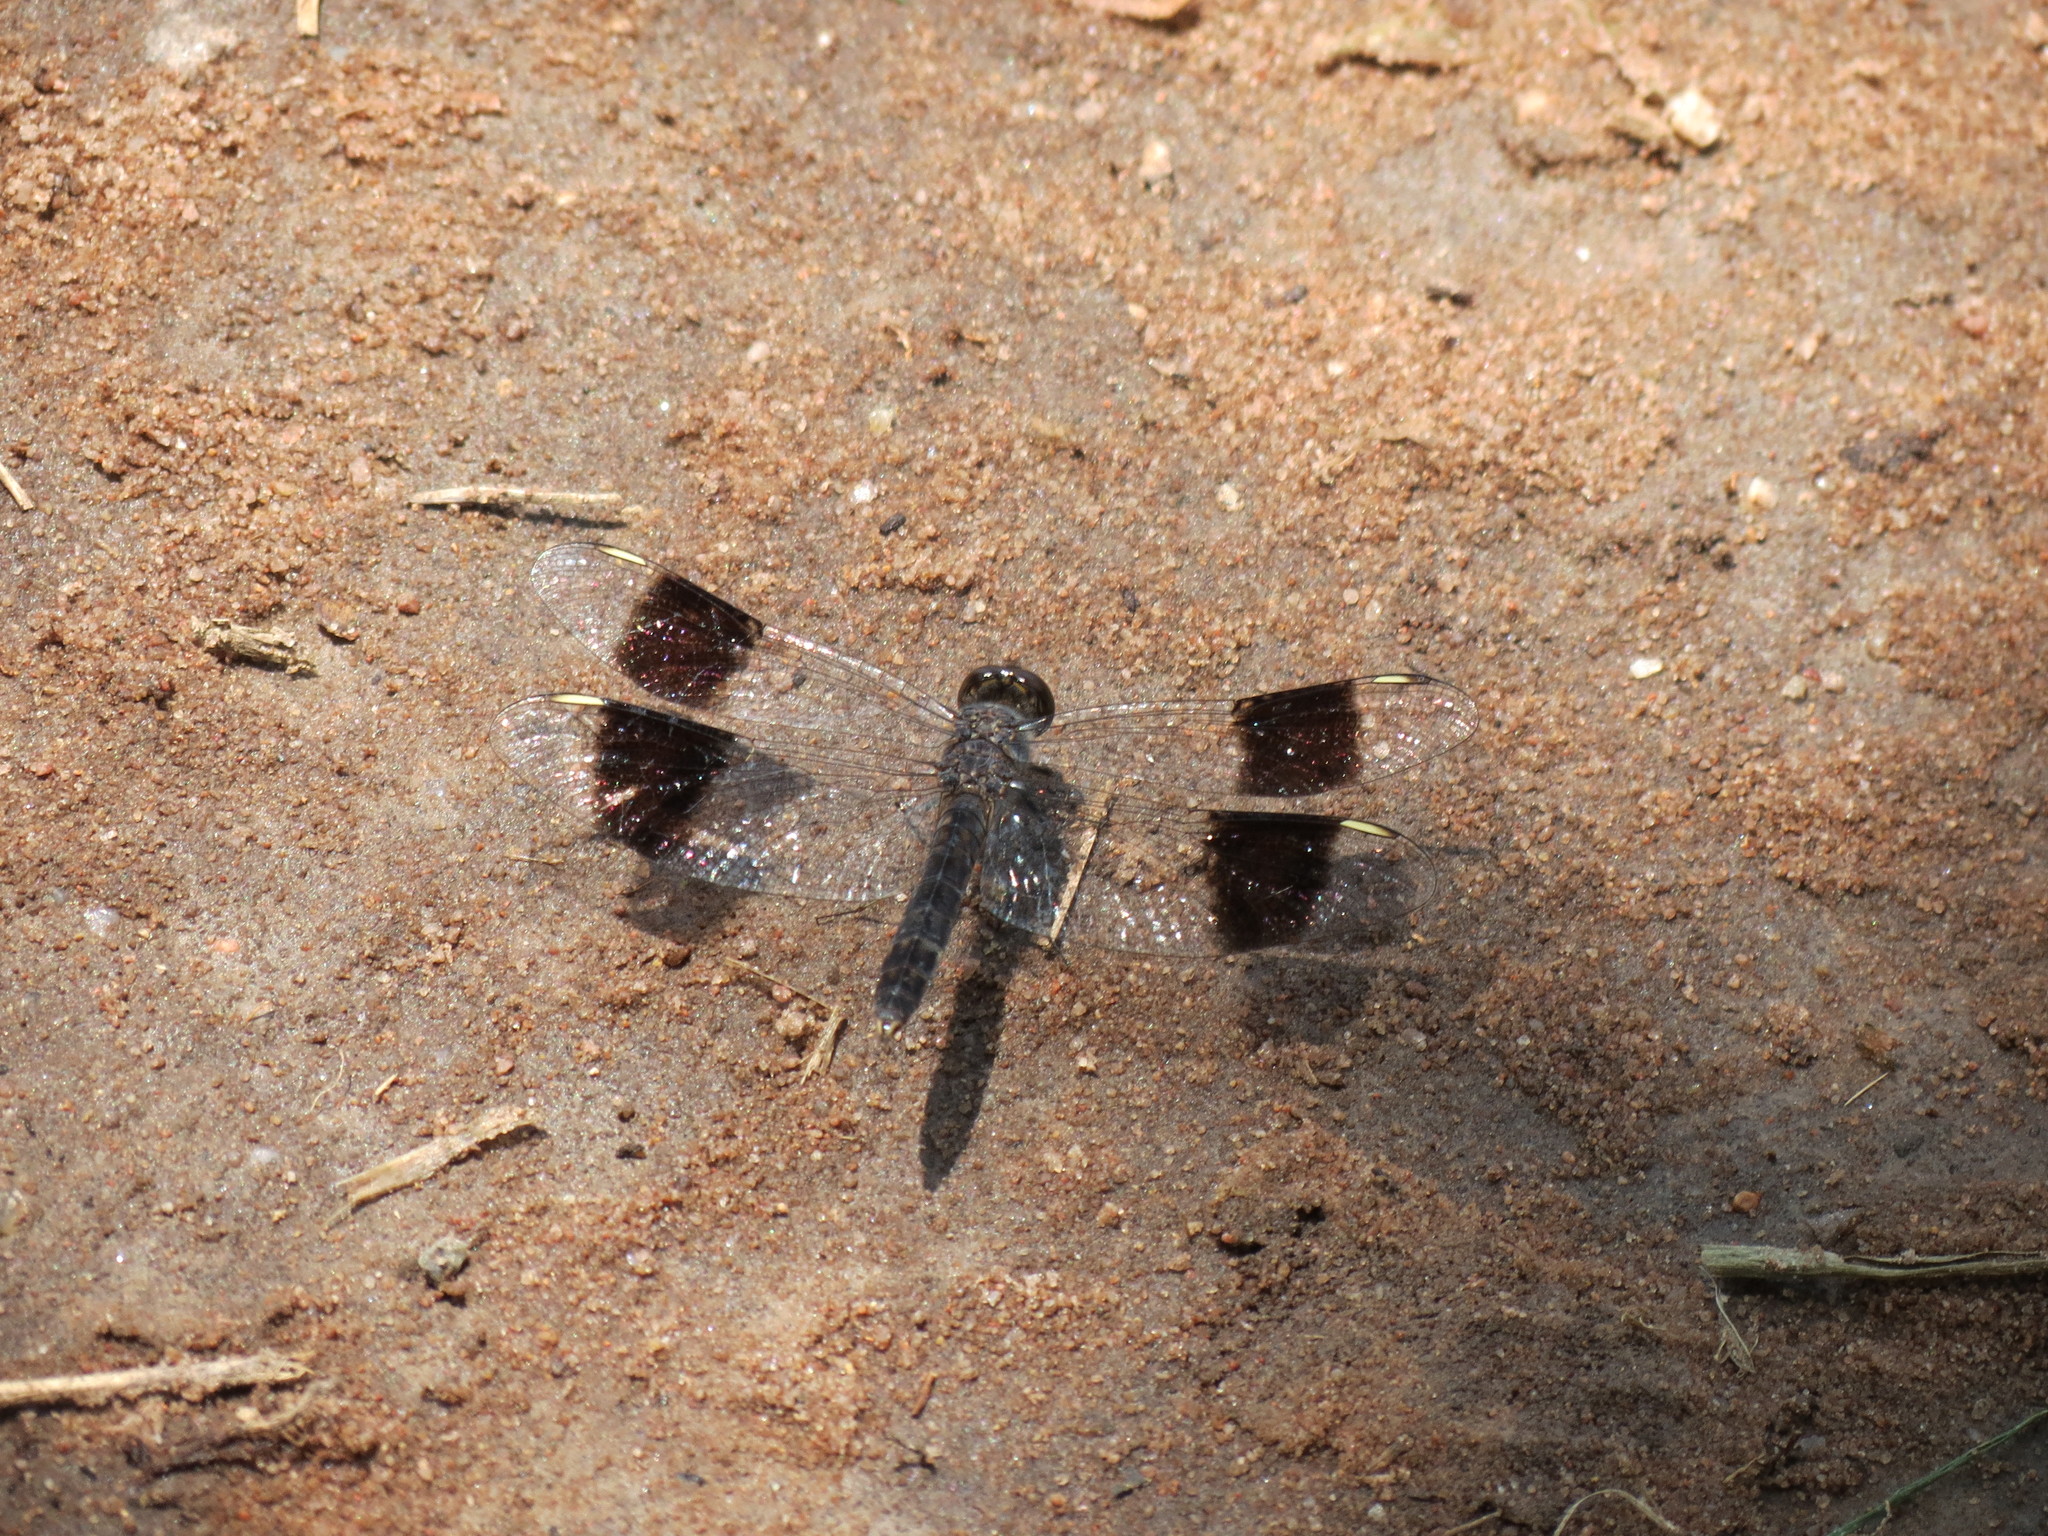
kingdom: Animalia
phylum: Arthropoda
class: Insecta
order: Odonata
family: Libellulidae
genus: Brachythemis
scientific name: Brachythemis leucosticta
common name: Banded groundling
